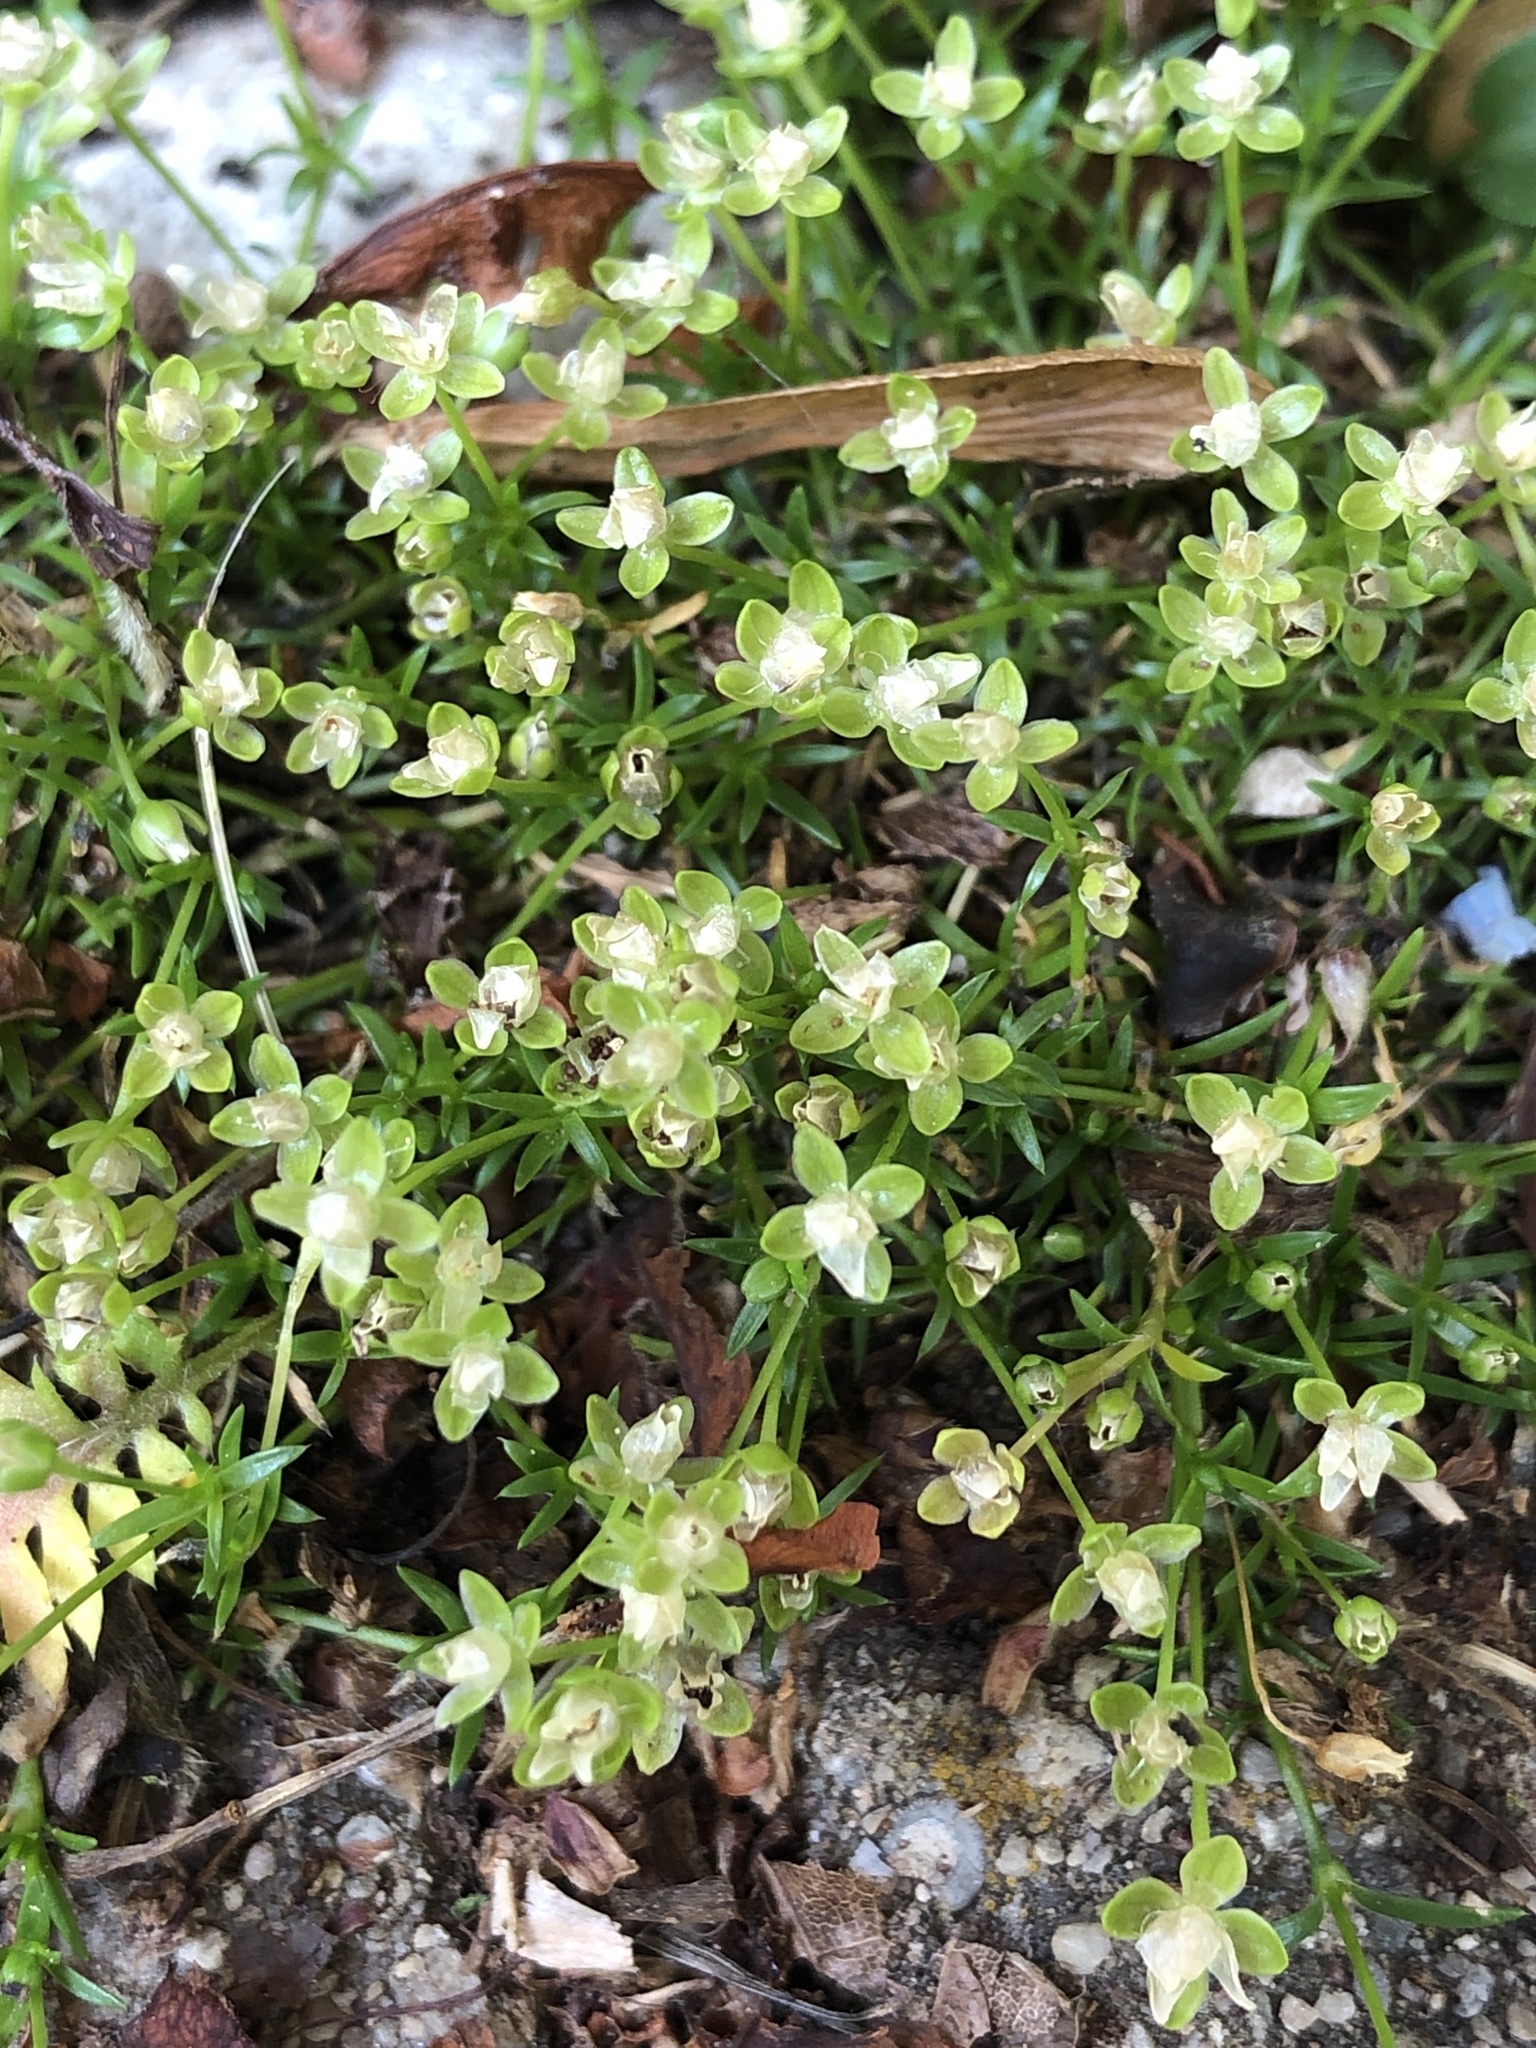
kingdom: Plantae
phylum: Tracheophyta
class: Magnoliopsida
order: Caryophyllales
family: Caryophyllaceae
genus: Sagina
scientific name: Sagina procumbens
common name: Procumbent pearlwort
